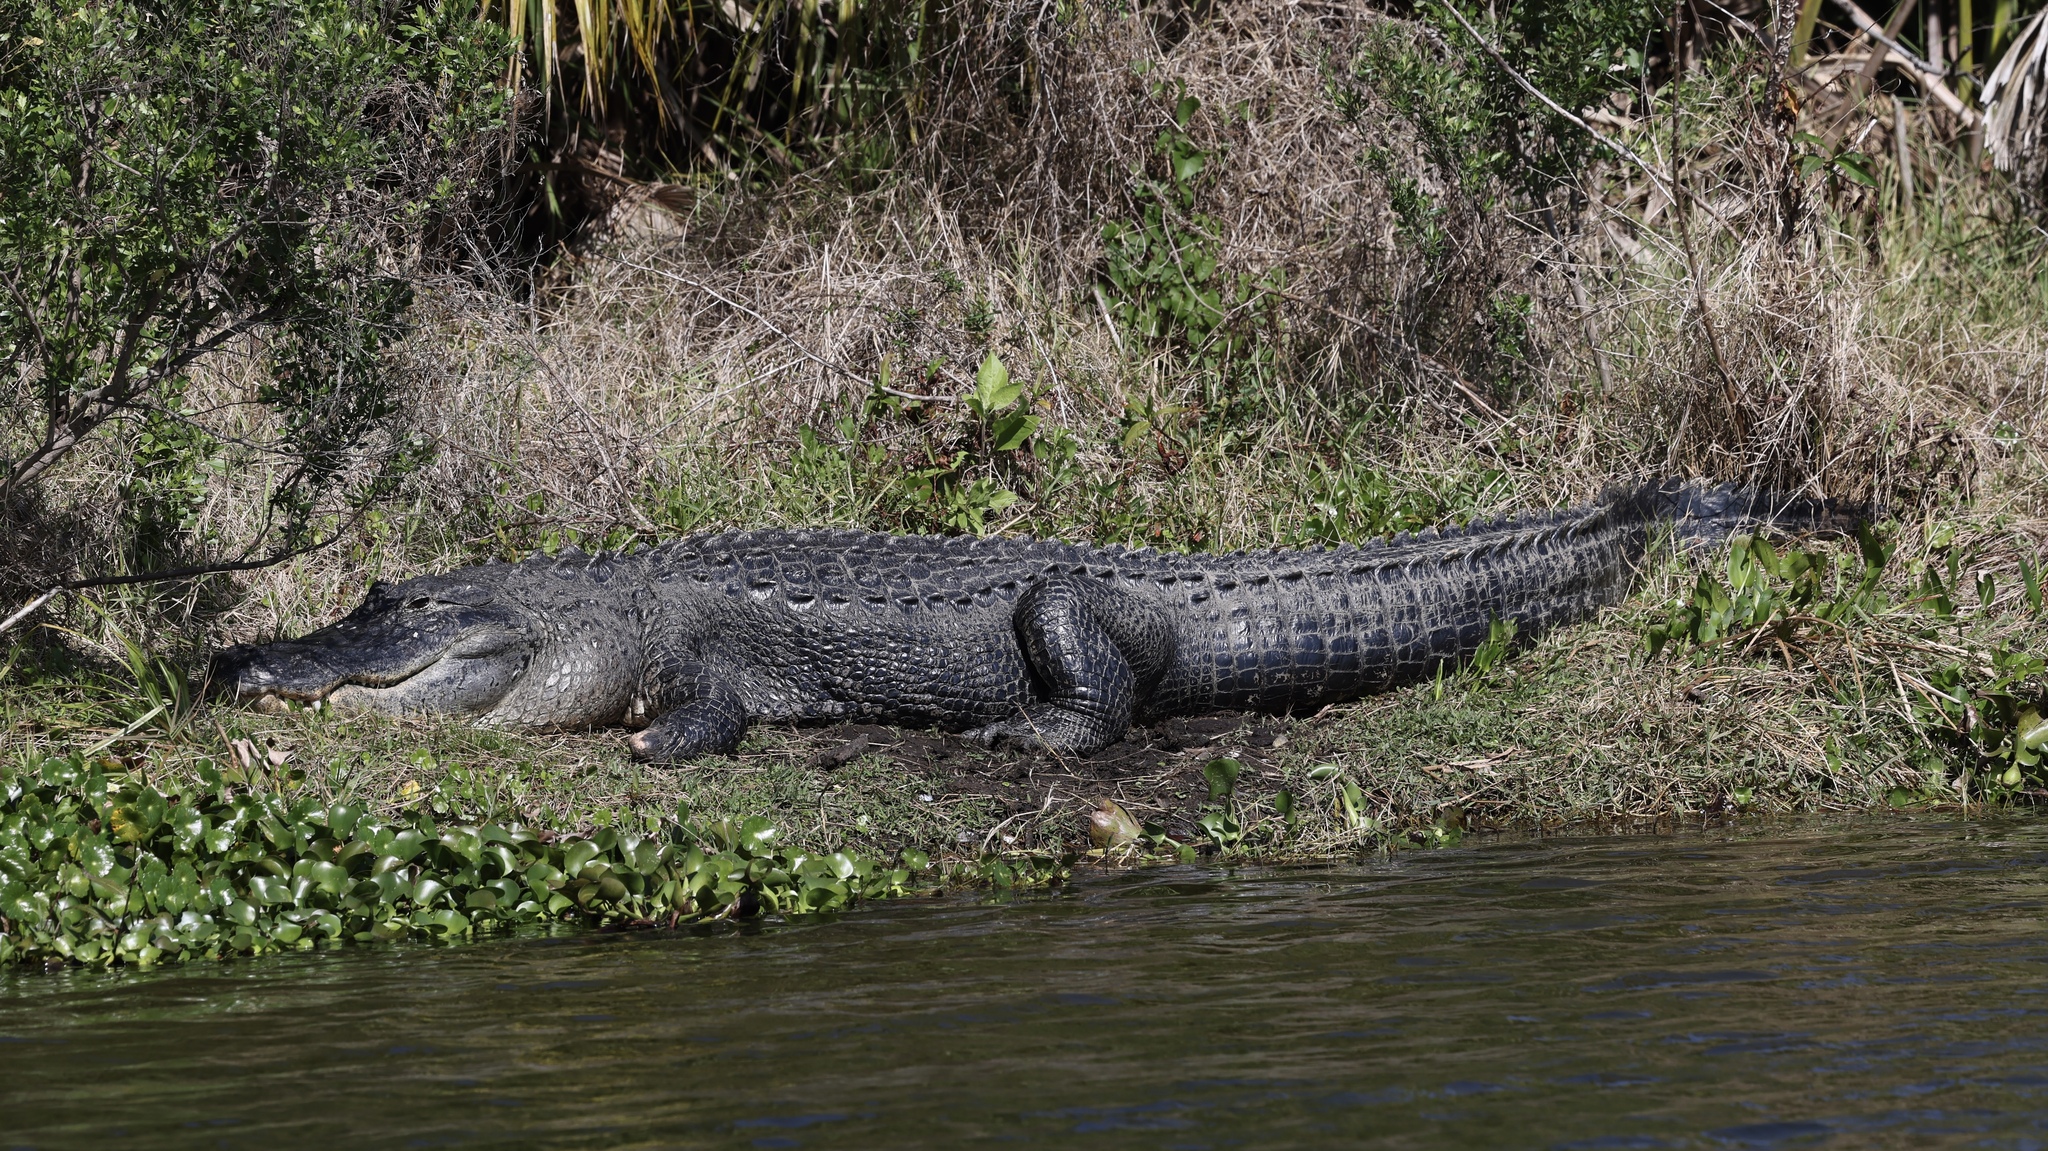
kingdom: Animalia
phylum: Chordata
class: Crocodylia
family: Alligatoridae
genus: Alligator
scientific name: Alligator mississippiensis
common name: American alligator
